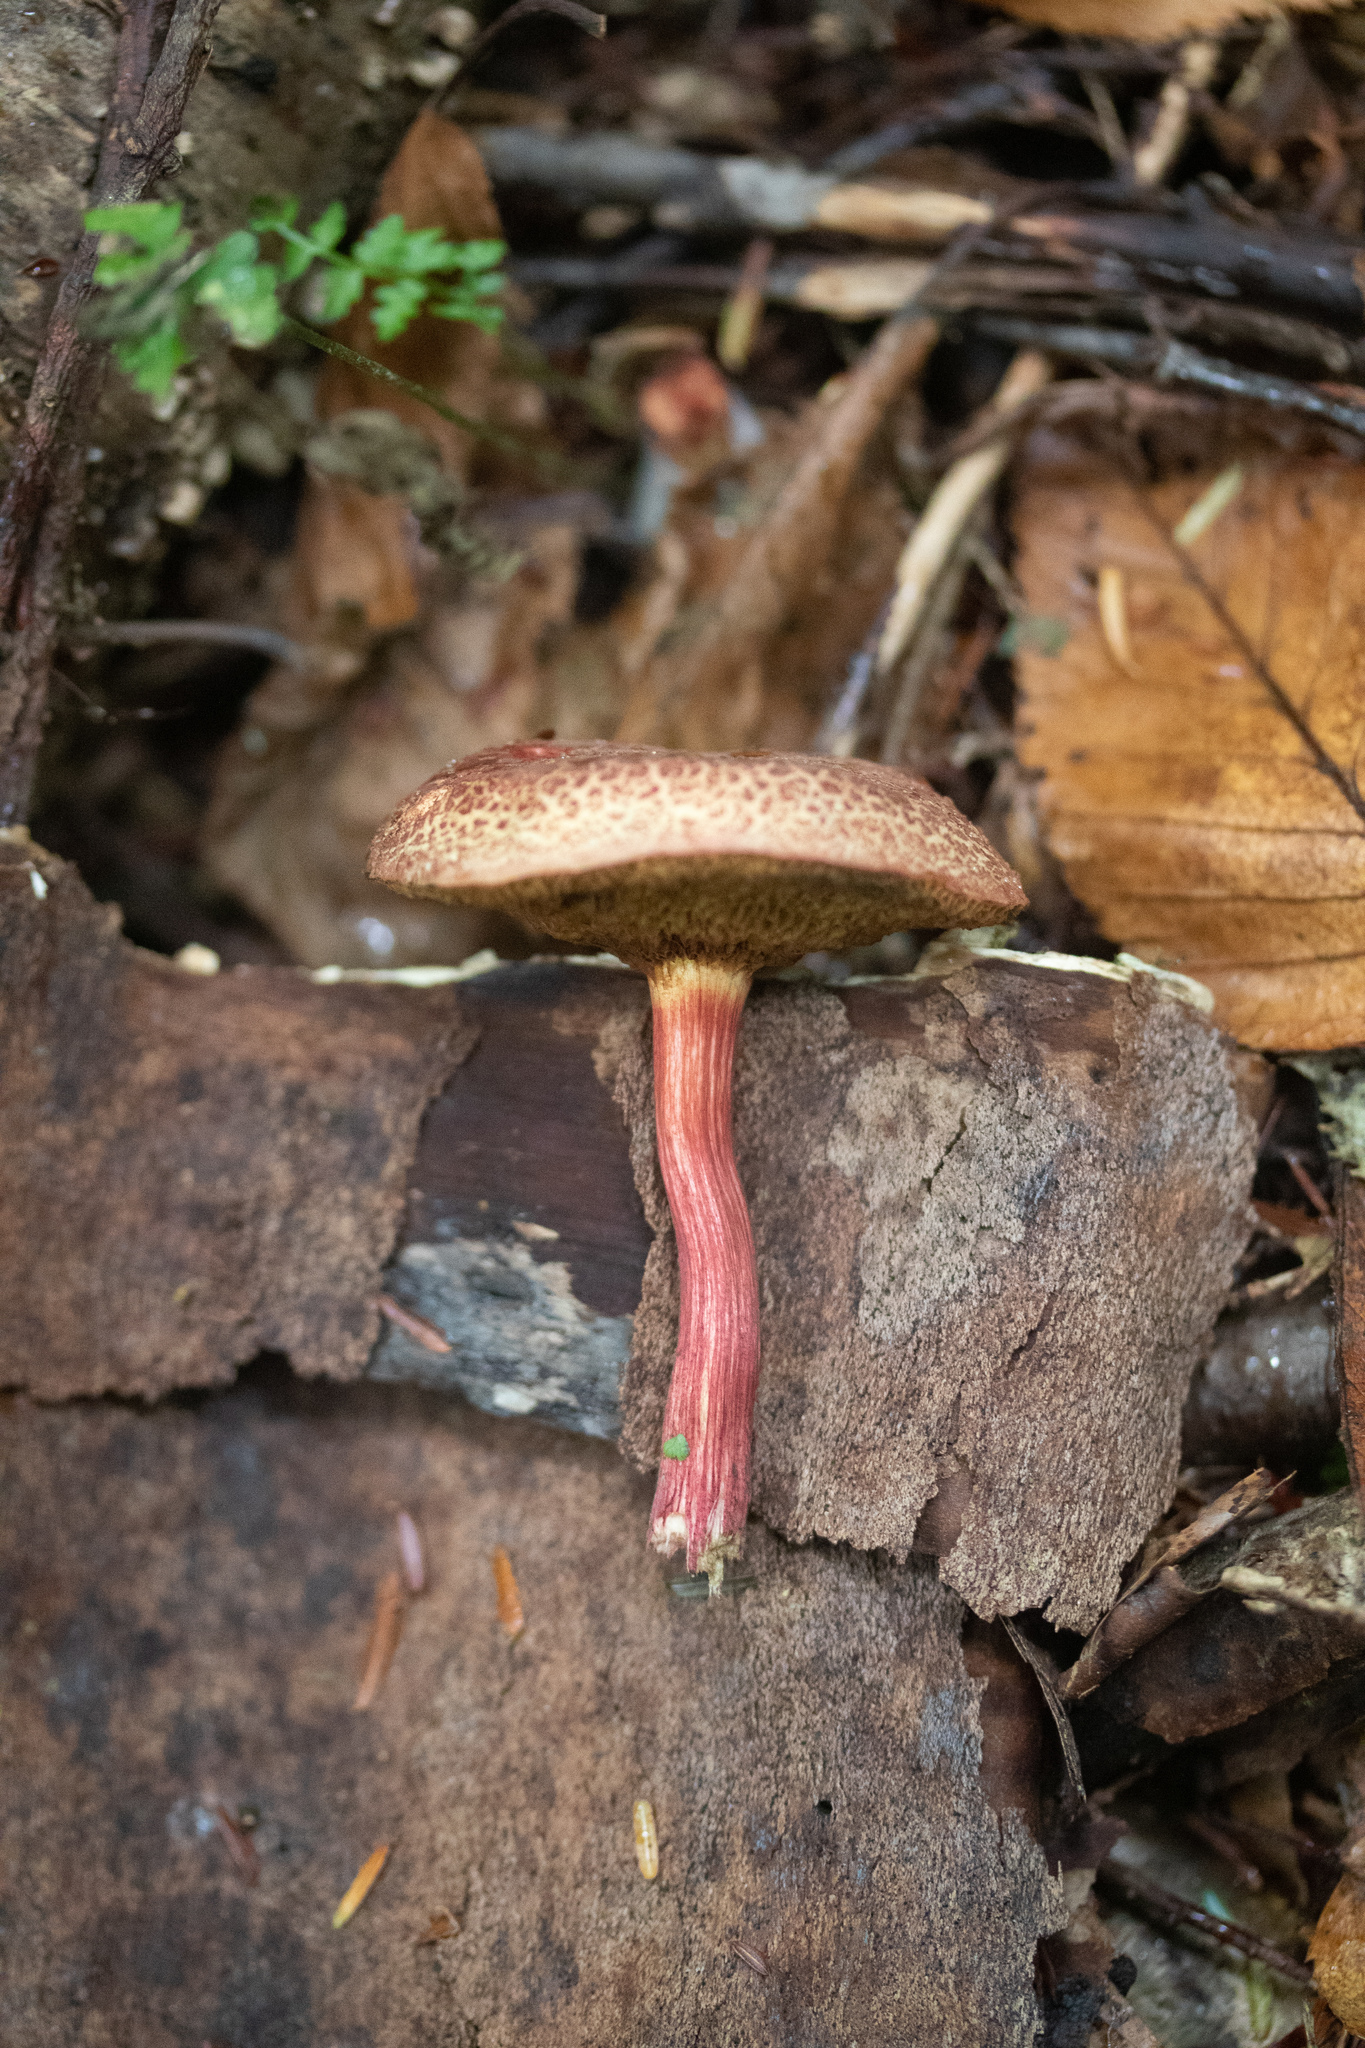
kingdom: Fungi
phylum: Basidiomycota
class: Agaricomycetes
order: Boletales
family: Boletaceae
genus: Xerocomellus
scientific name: Xerocomellus chrysenteron
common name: Red-cracking bolete
